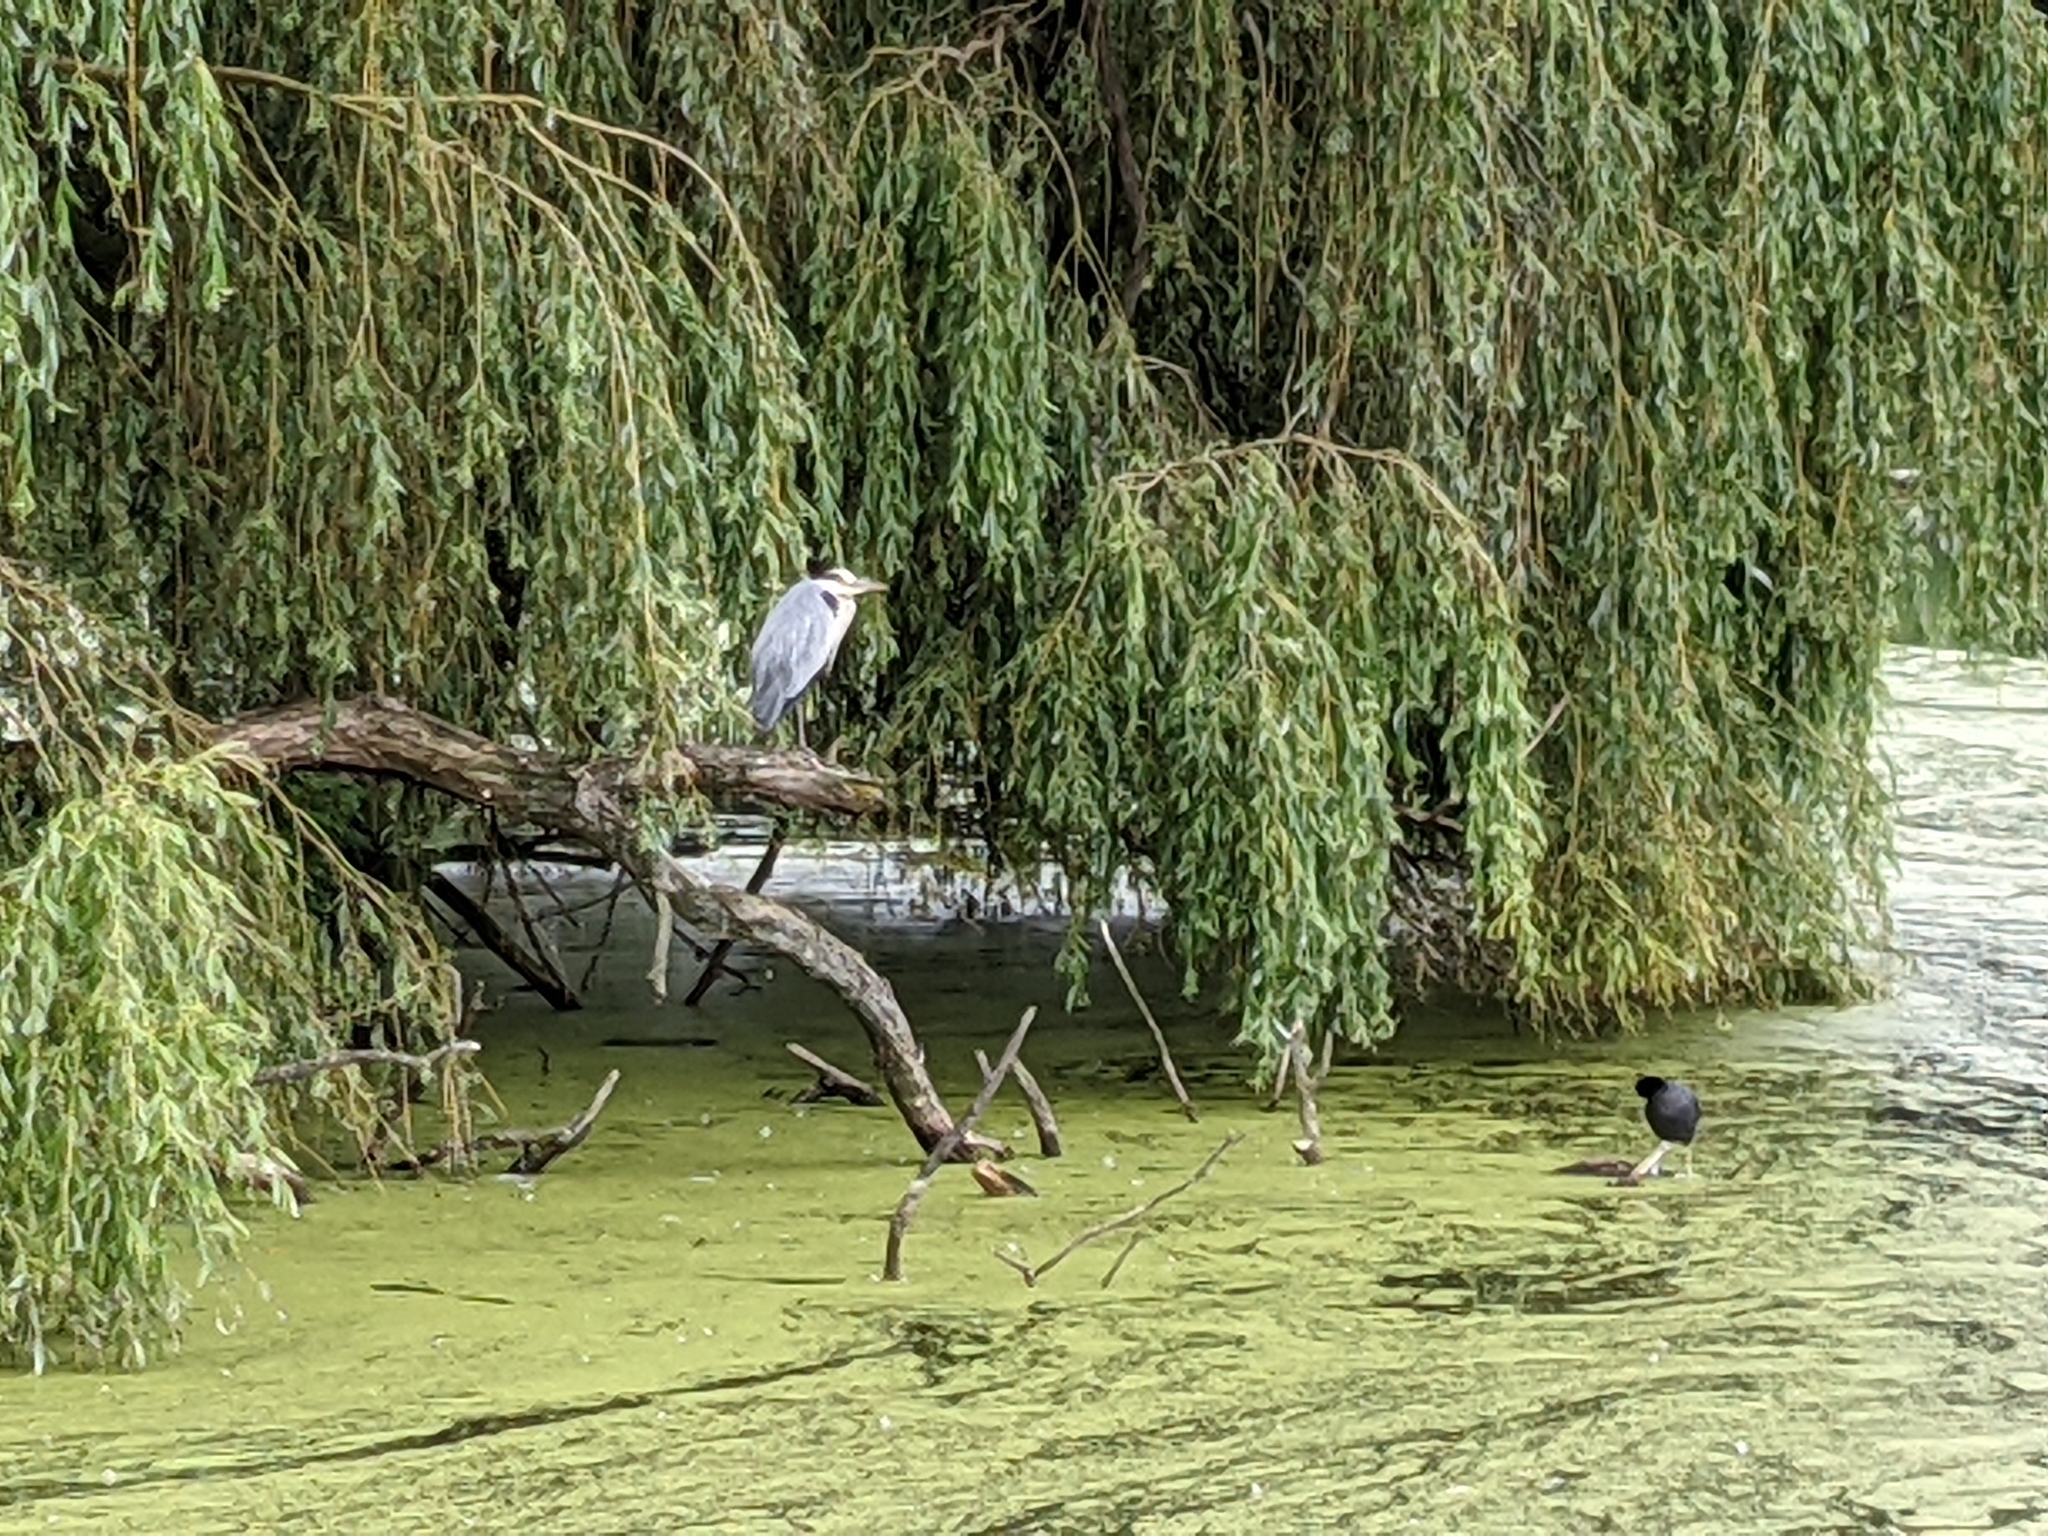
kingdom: Animalia
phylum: Chordata
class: Aves
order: Pelecaniformes
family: Ardeidae
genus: Ardea
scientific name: Ardea cinerea
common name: Grey heron
